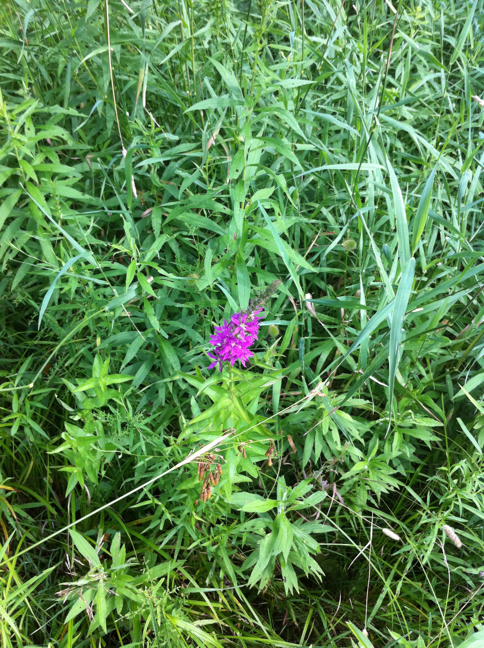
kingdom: Plantae
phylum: Tracheophyta
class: Magnoliopsida
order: Myrtales
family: Lythraceae
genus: Lythrum
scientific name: Lythrum salicaria
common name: Purple loosestrife
